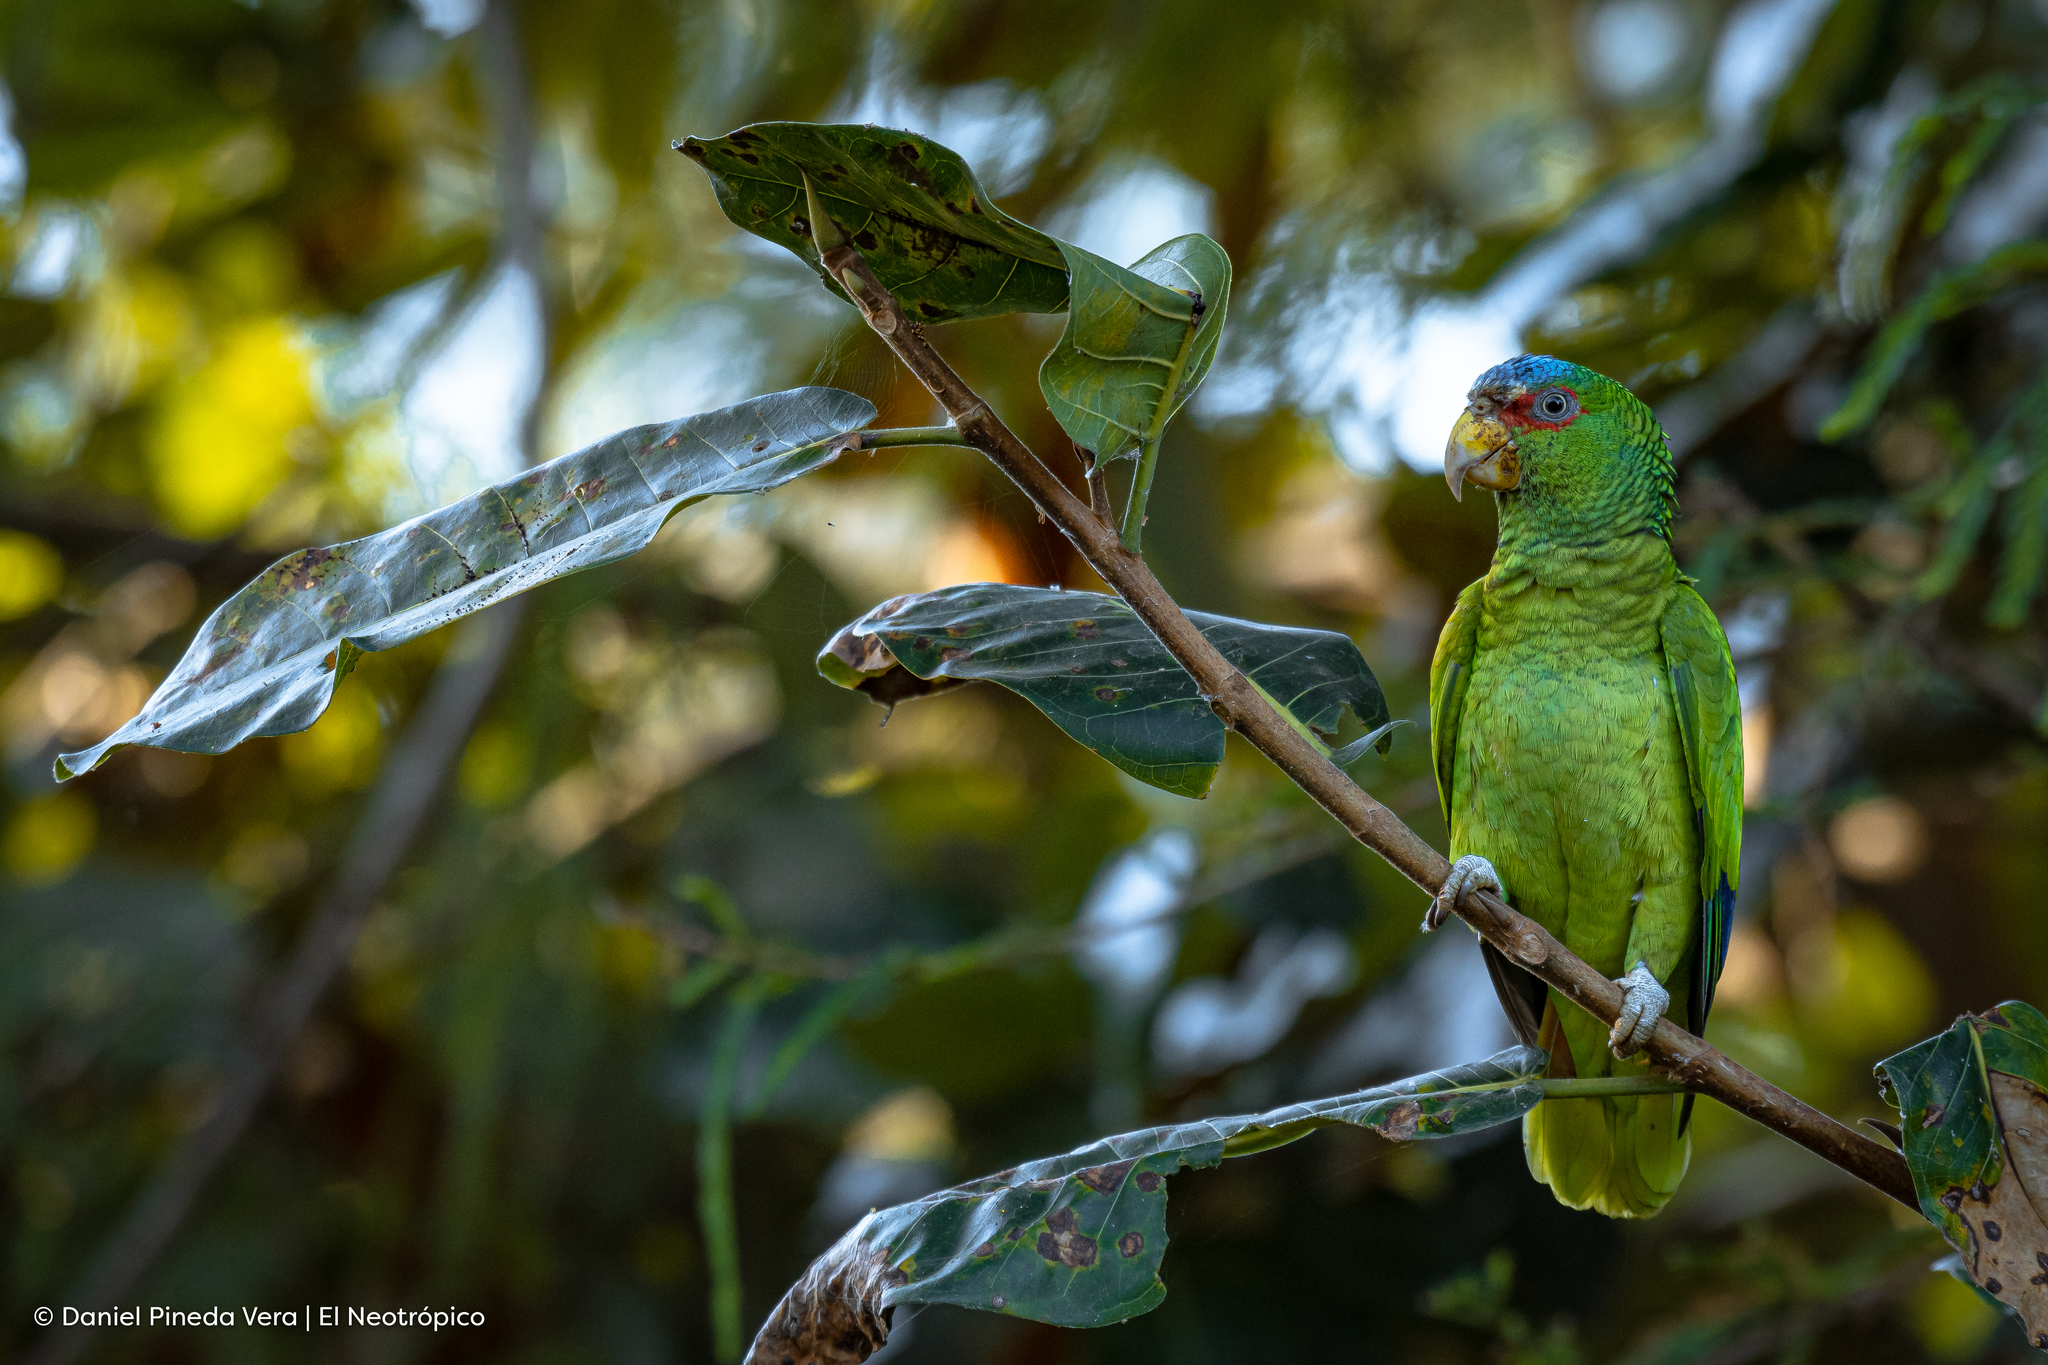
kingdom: Animalia
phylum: Chordata
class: Aves
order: Psittaciformes
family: Psittacidae
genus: Amazona
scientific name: Amazona albifrons
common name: White-fronted amazon
